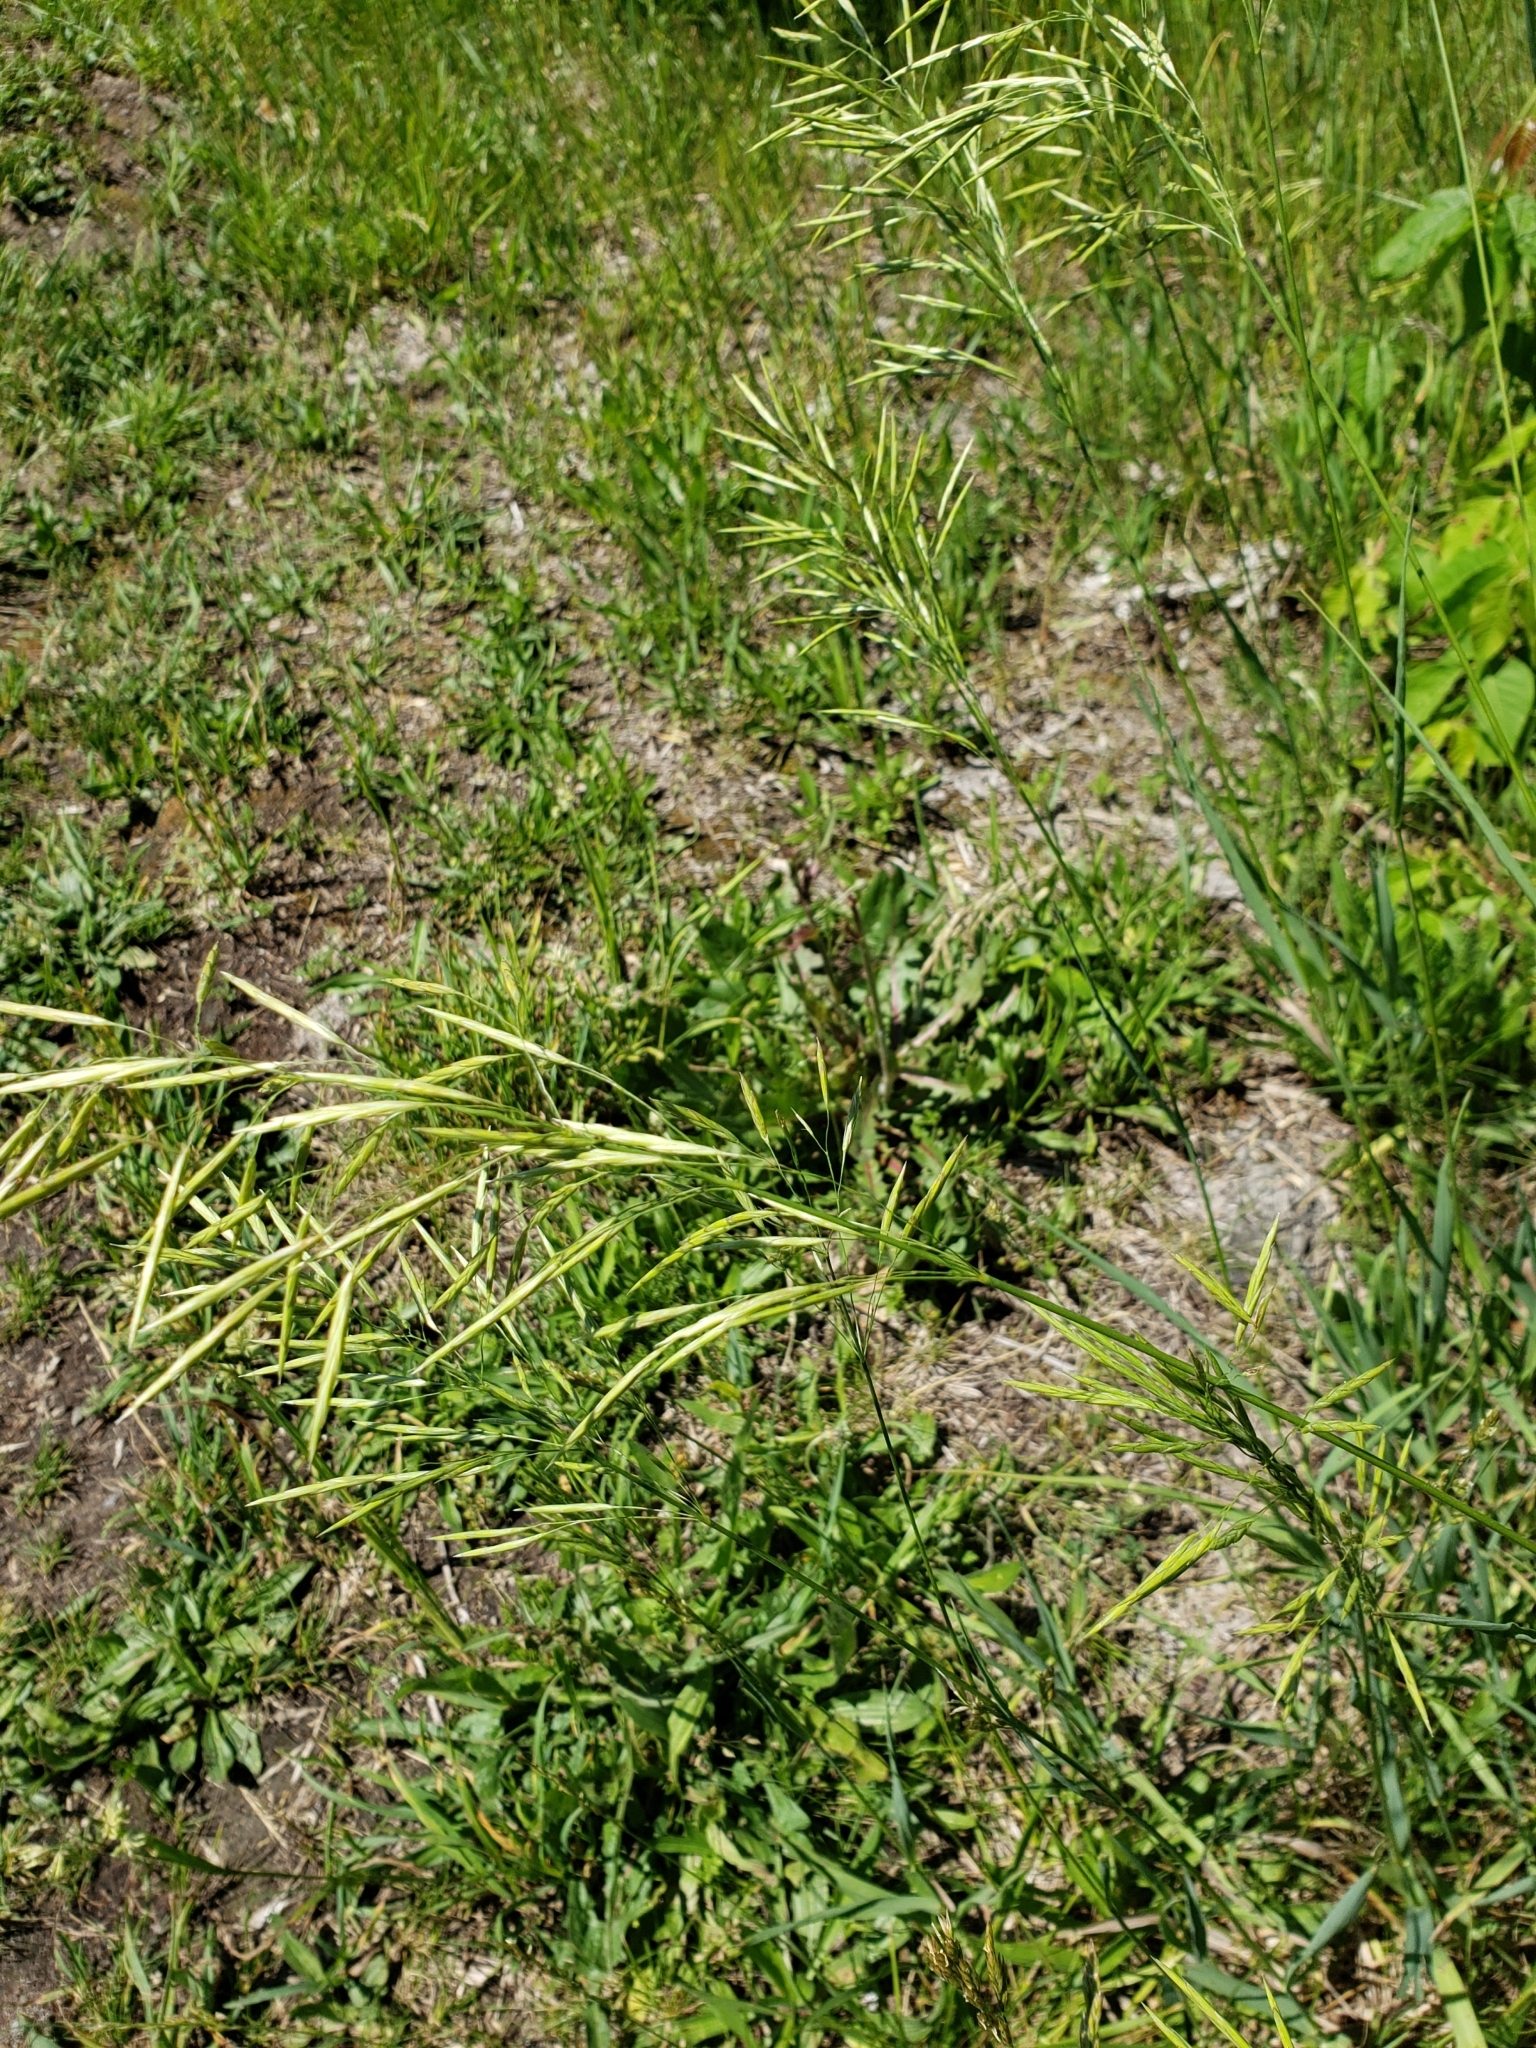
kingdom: Plantae
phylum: Tracheophyta
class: Liliopsida
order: Poales
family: Poaceae
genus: Bromus
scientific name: Bromus inermis
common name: Smooth brome
